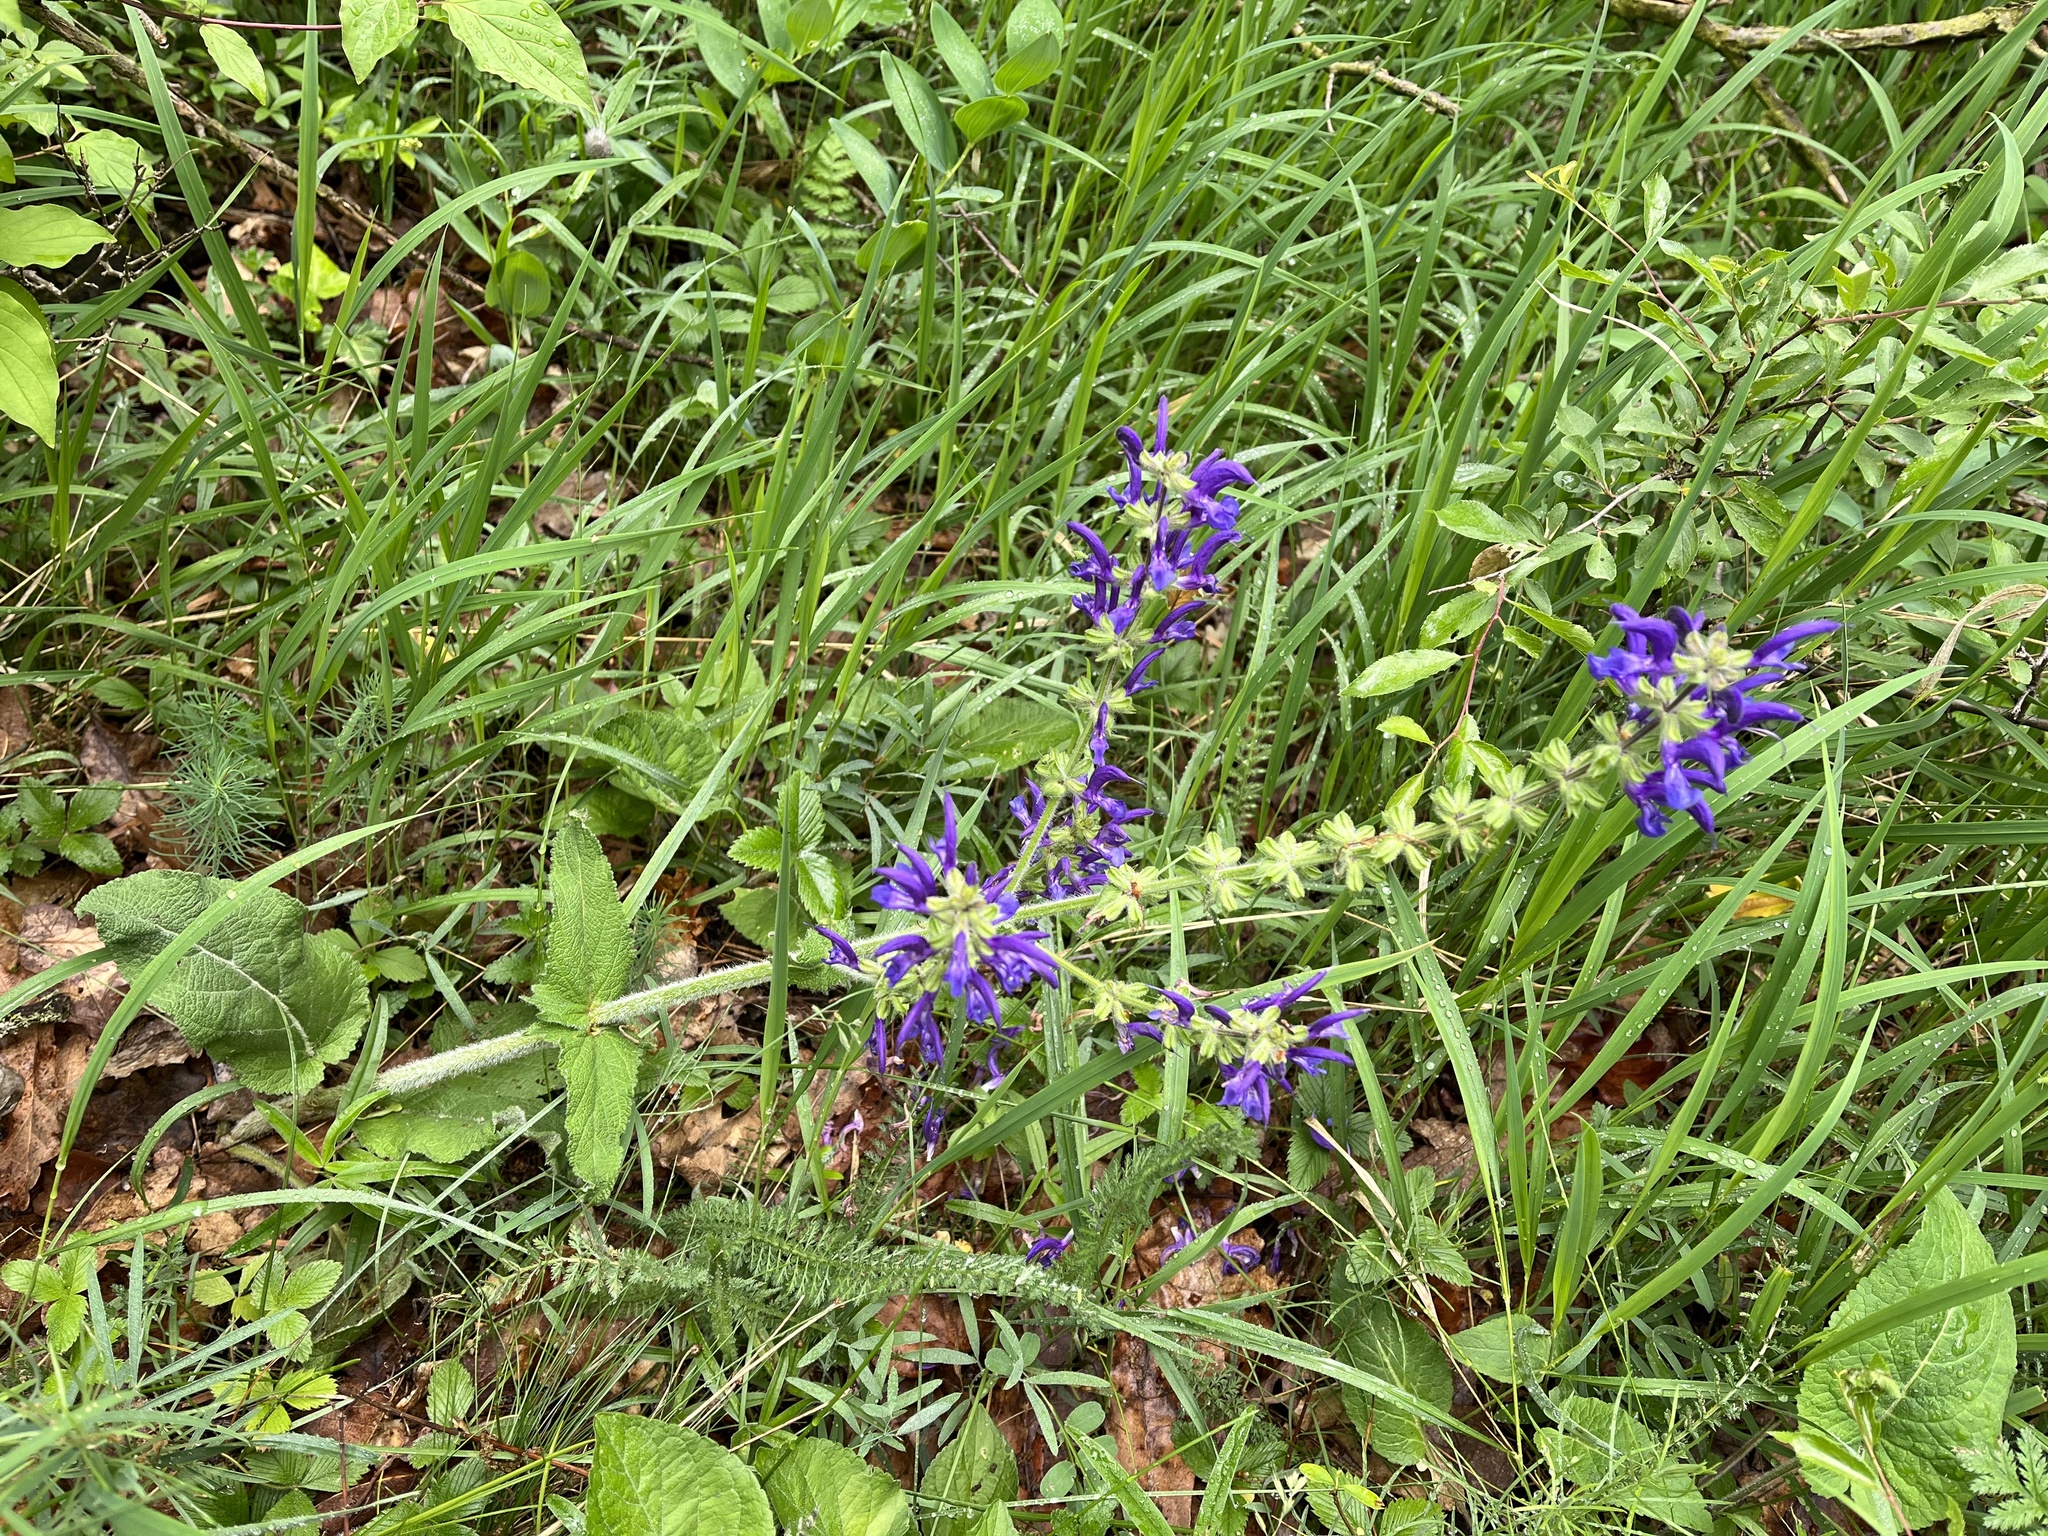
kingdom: Plantae
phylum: Tracheophyta
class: Magnoliopsida
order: Lamiales
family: Lamiaceae
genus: Salvia
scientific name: Salvia pratensis
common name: Meadow sage
